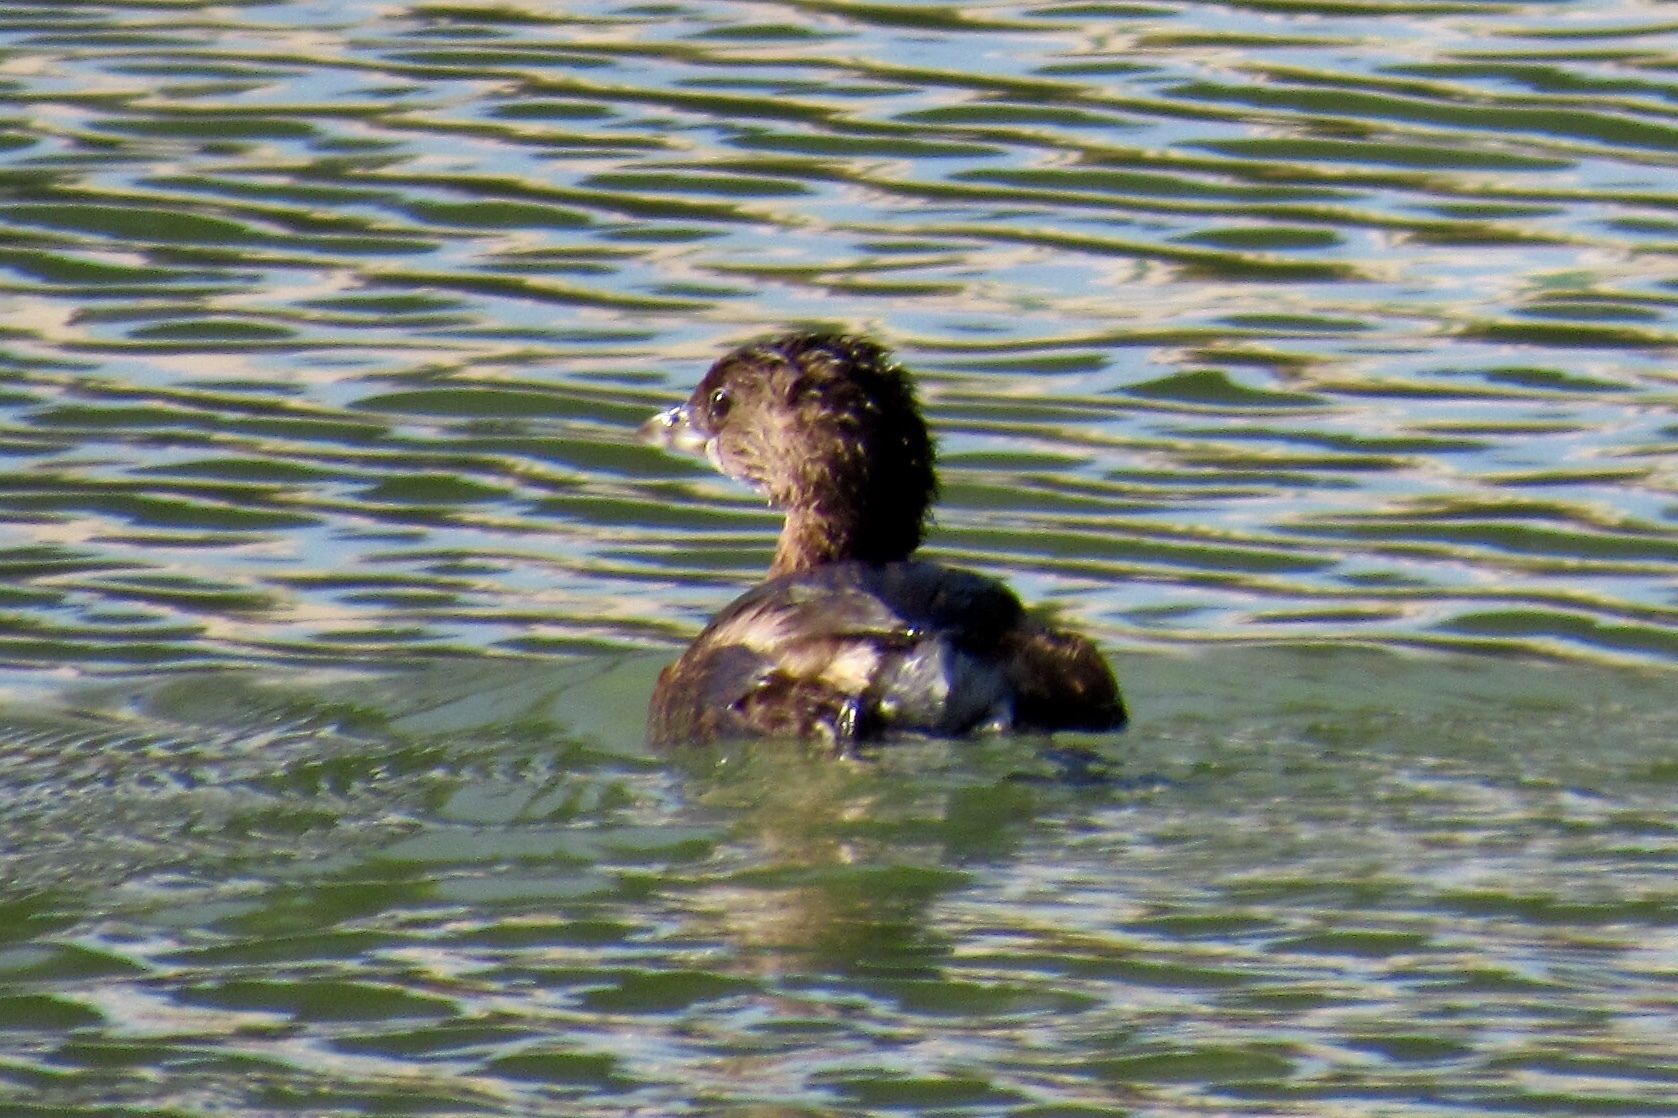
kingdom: Animalia
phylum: Chordata
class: Aves
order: Podicipediformes
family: Podicipedidae
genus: Podilymbus
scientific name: Podilymbus podiceps
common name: Pied-billed grebe
